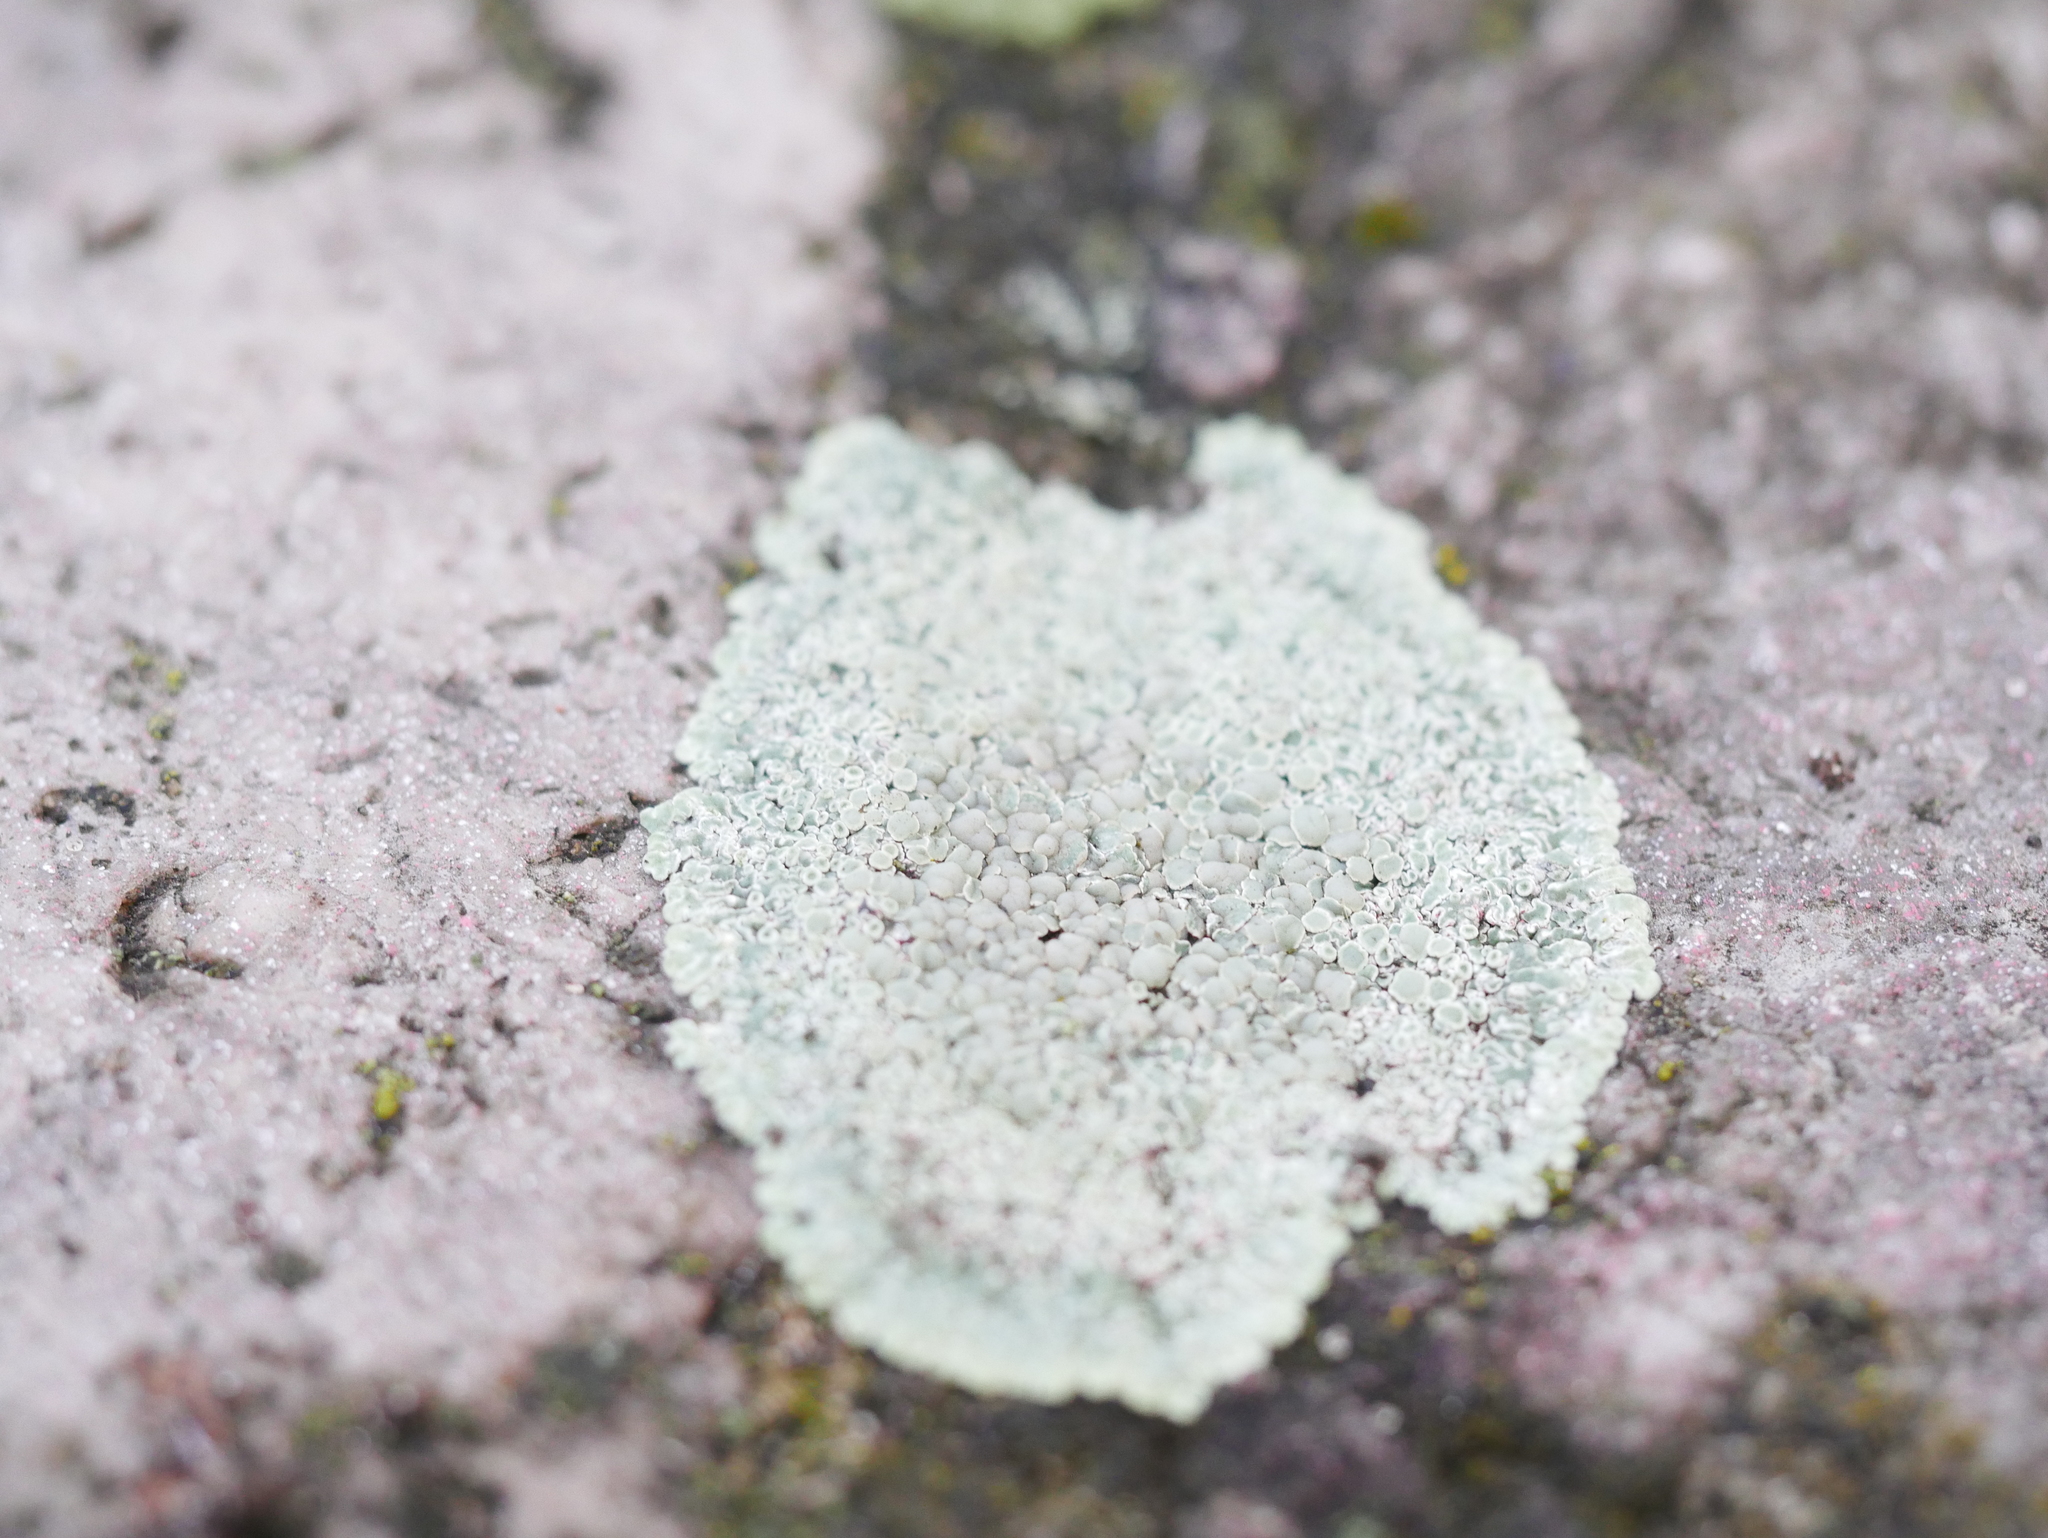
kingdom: Fungi
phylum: Ascomycota
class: Lecanoromycetes
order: Lecanorales
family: Lecanoraceae
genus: Protoparmeliopsis
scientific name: Protoparmeliopsis muralis
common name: Stonewall rim lichen
